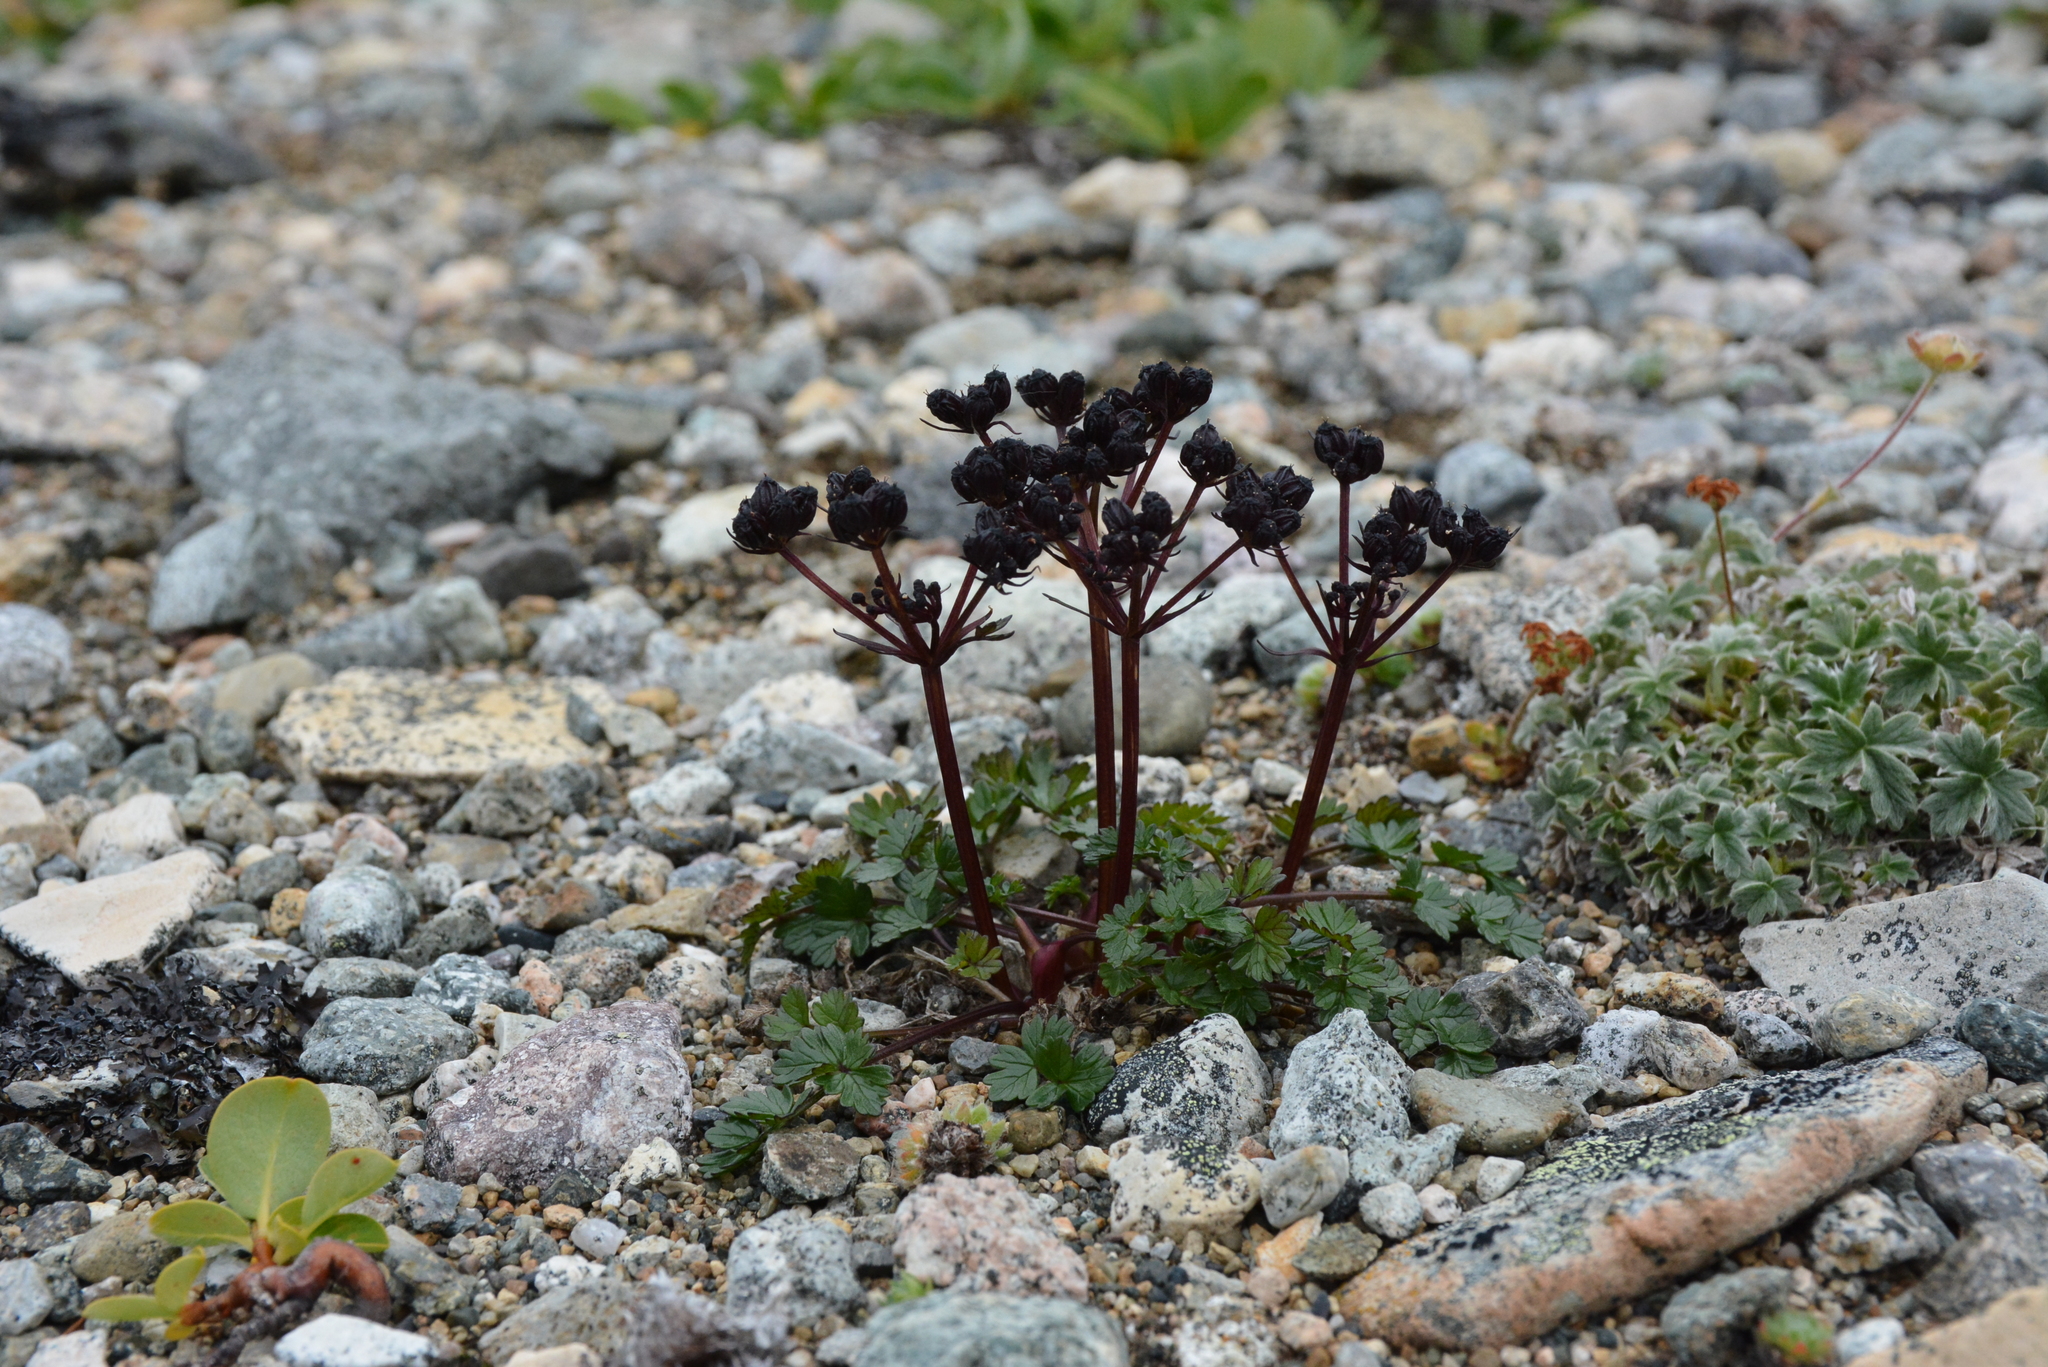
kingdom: Plantae
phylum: Tracheophyta
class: Magnoliopsida
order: Apiales
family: Apiaceae
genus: Orumbella
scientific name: Orumbella macounii
